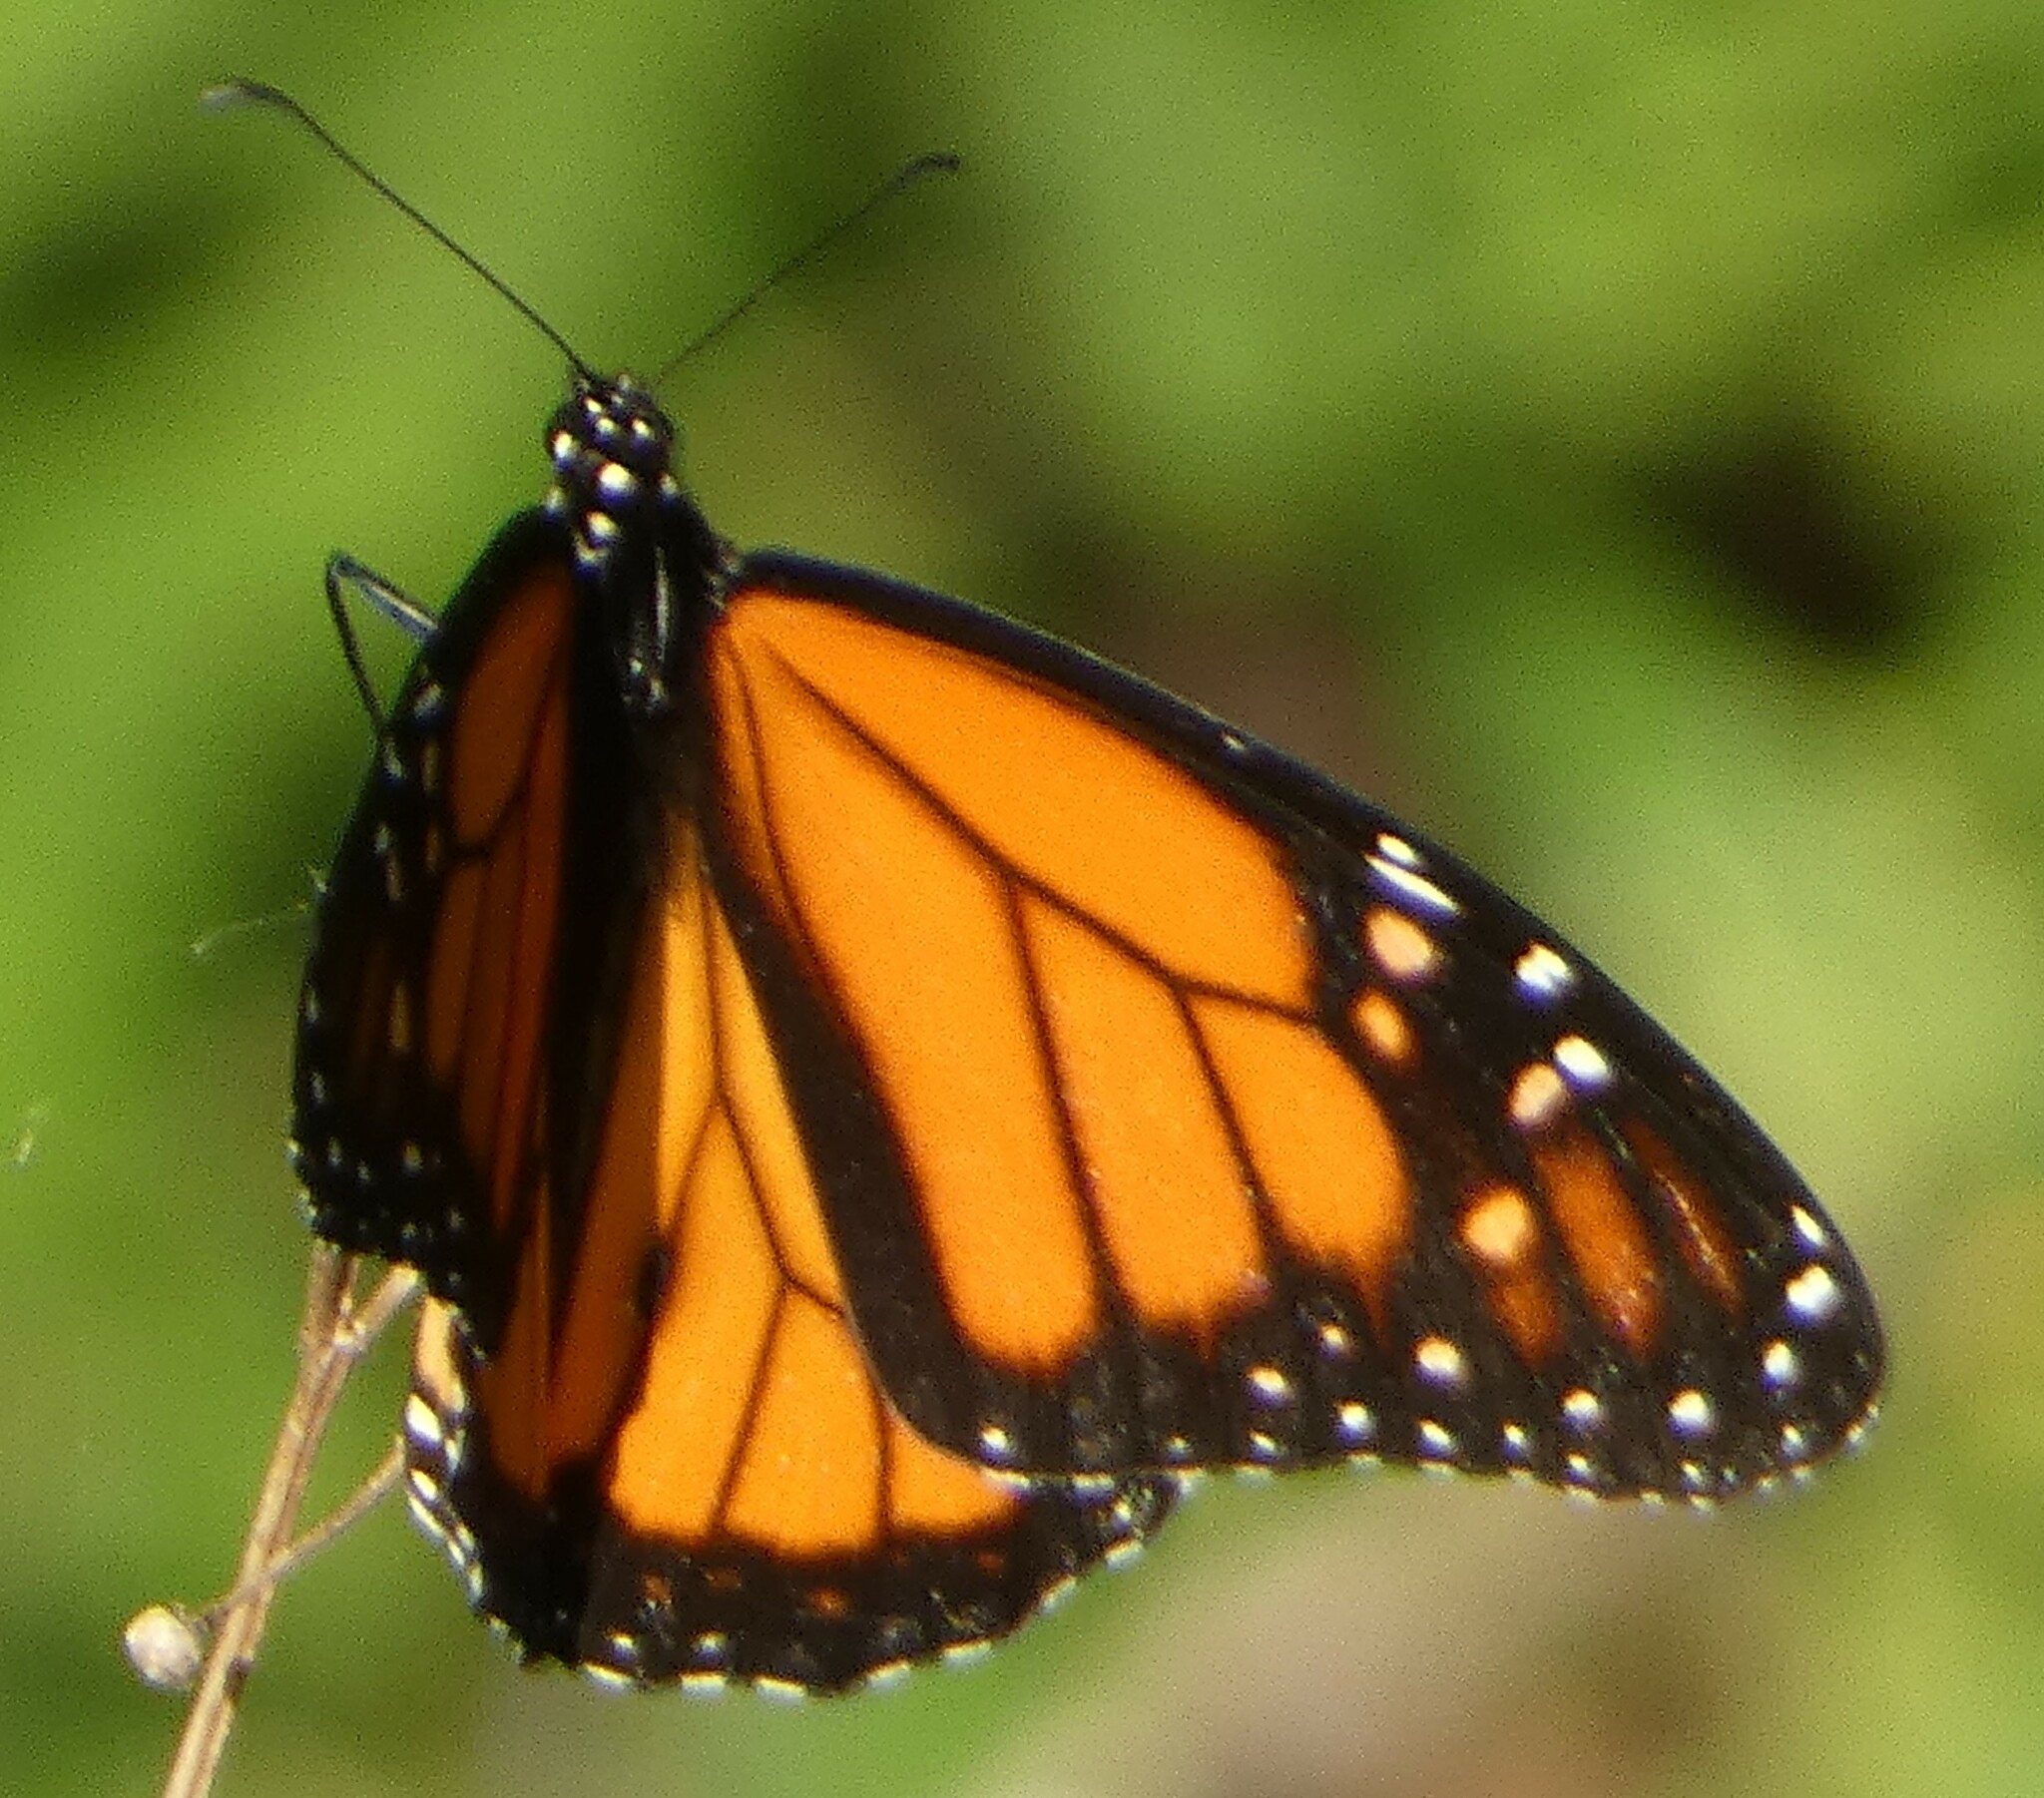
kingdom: Animalia
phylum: Arthropoda
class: Insecta
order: Lepidoptera
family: Nymphalidae
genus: Danaus
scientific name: Danaus plexippus
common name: Monarch
